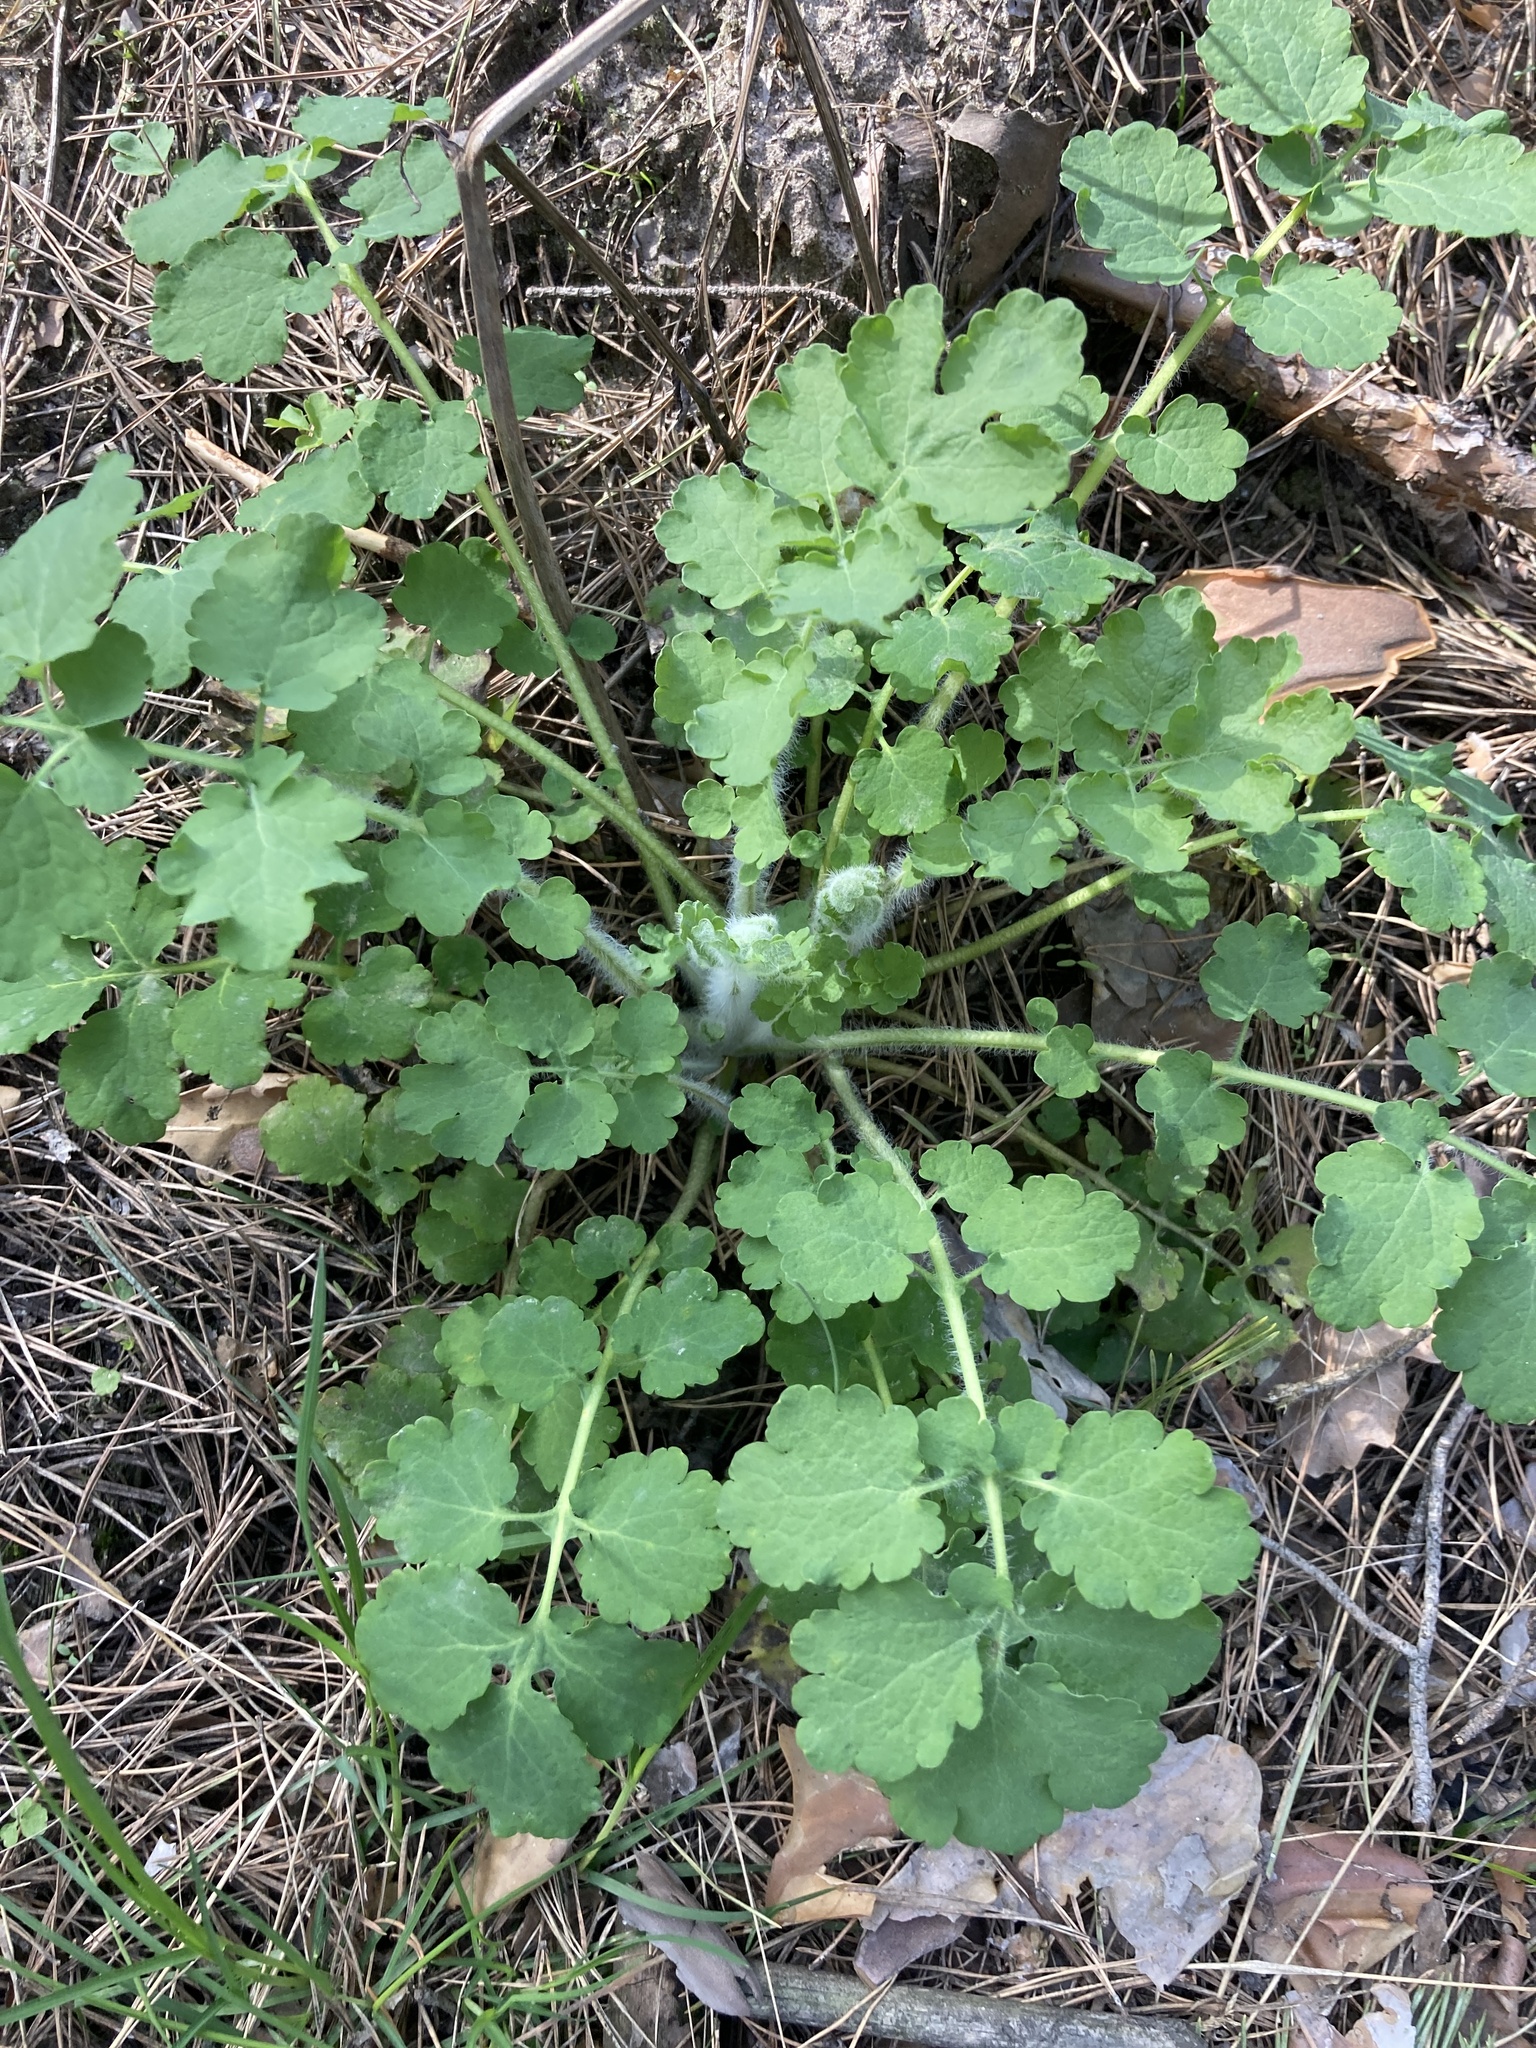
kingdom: Plantae
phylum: Tracheophyta
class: Magnoliopsida
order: Ranunculales
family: Papaveraceae
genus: Chelidonium
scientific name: Chelidonium majus
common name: Greater celandine
